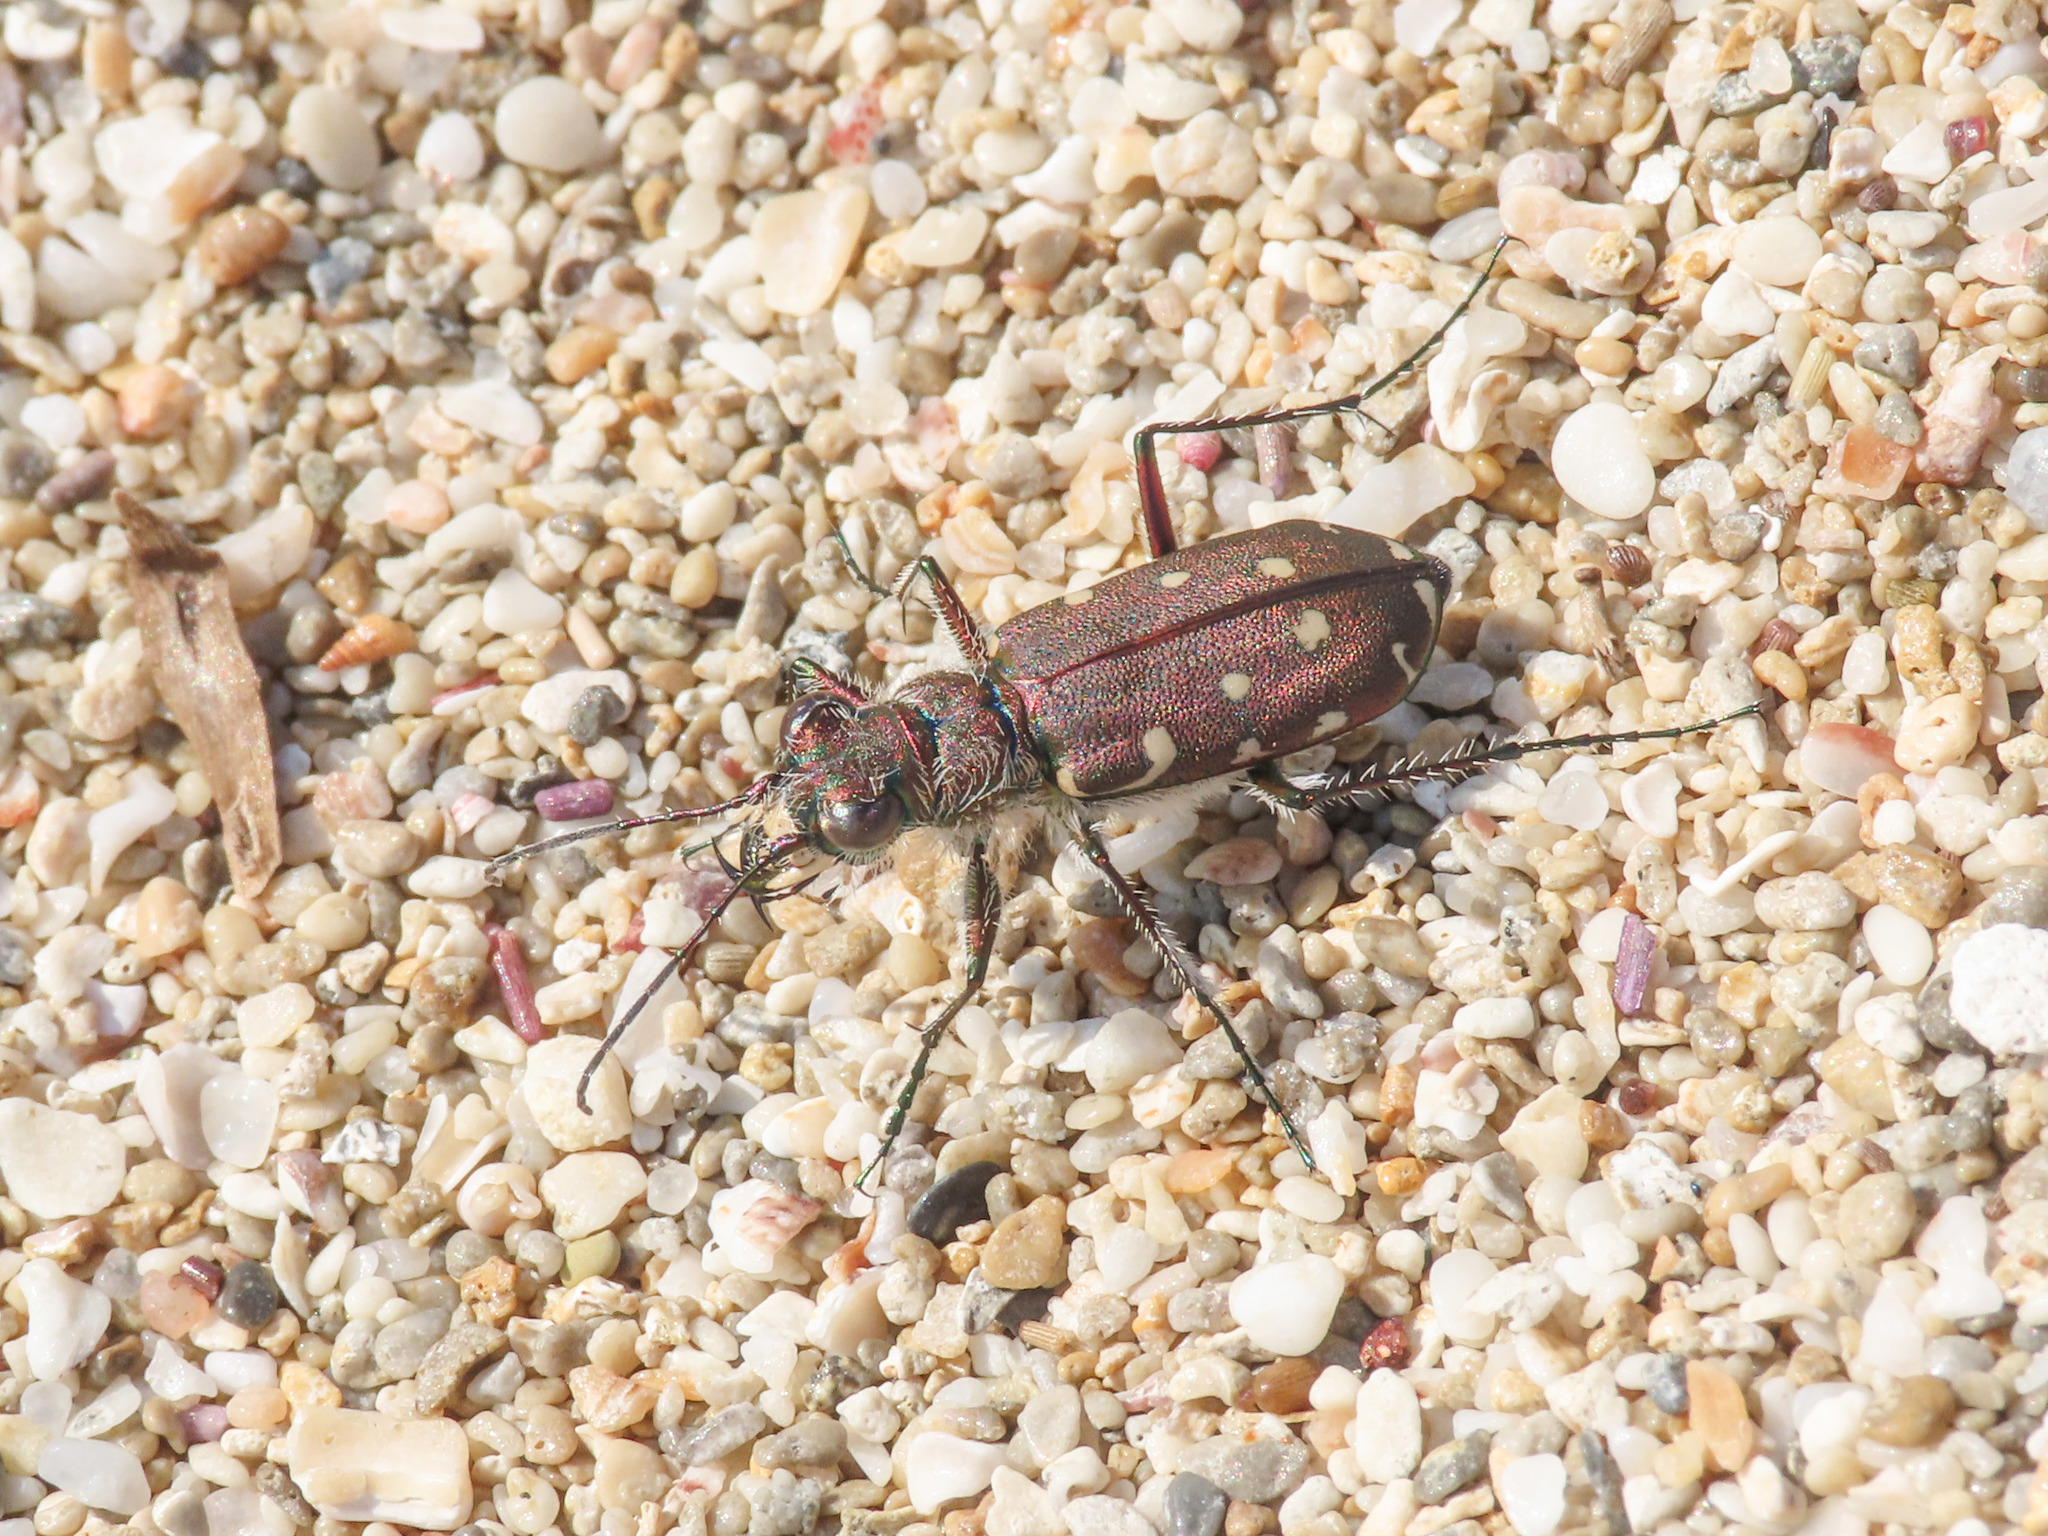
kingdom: Animalia
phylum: Arthropoda
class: Insecta
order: Coleoptera
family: Carabidae
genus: Cicindela
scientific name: Cicindela littoralis
